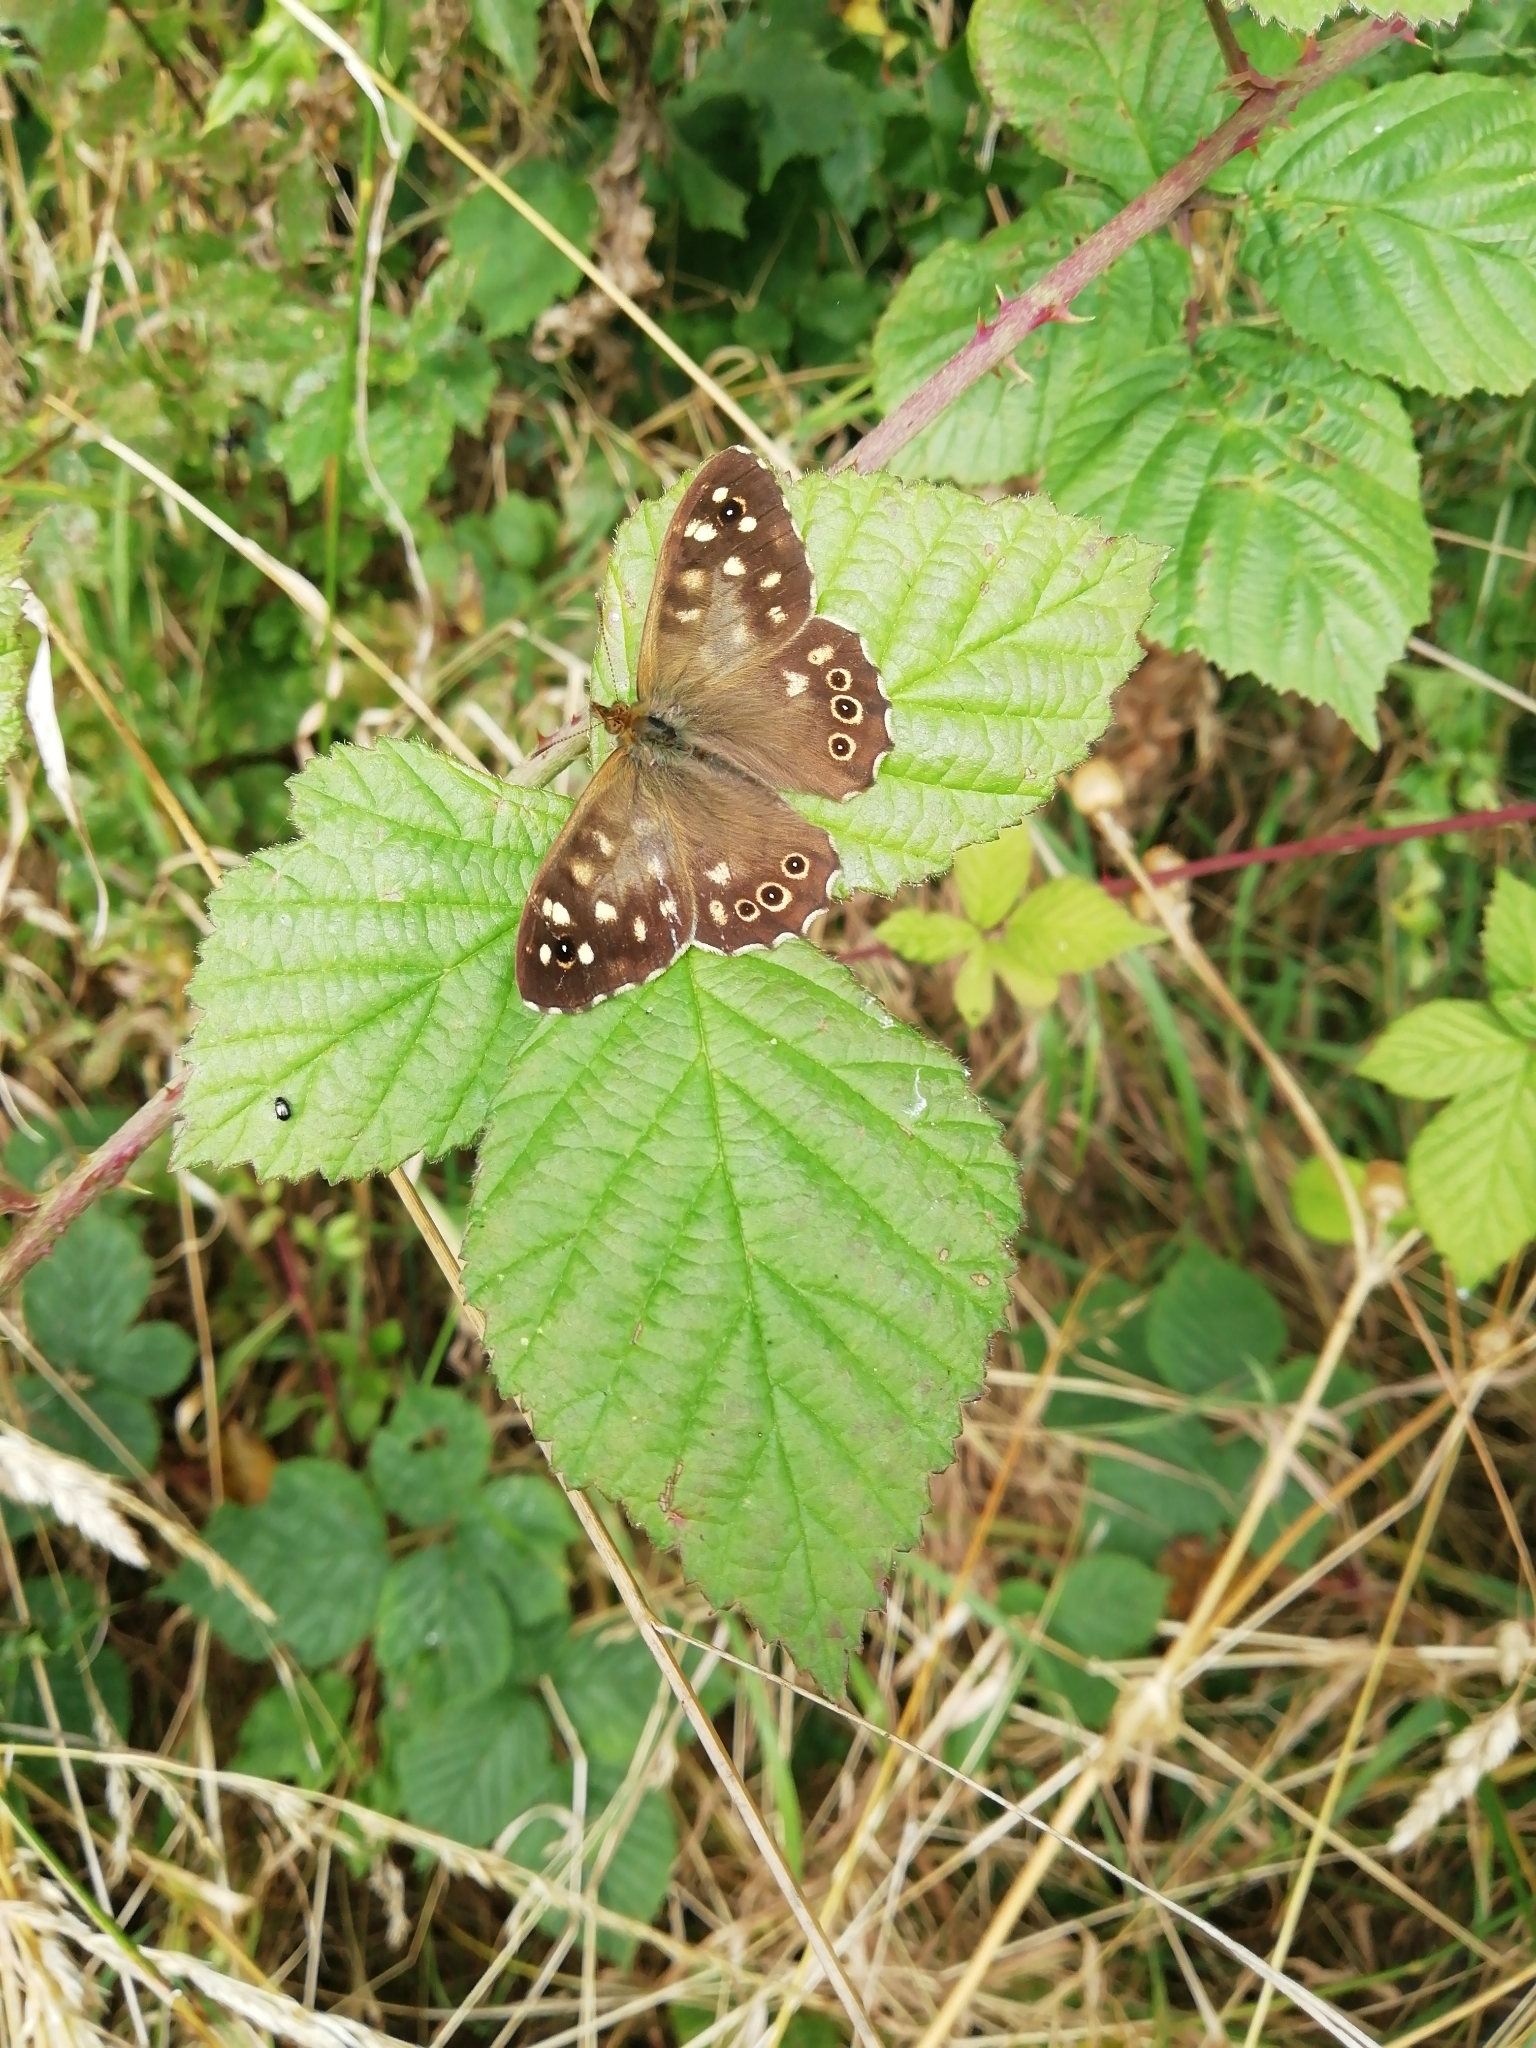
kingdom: Animalia
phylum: Arthropoda
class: Insecta
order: Lepidoptera
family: Nymphalidae
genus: Pararge
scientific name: Pararge aegeria
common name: Speckled wood
